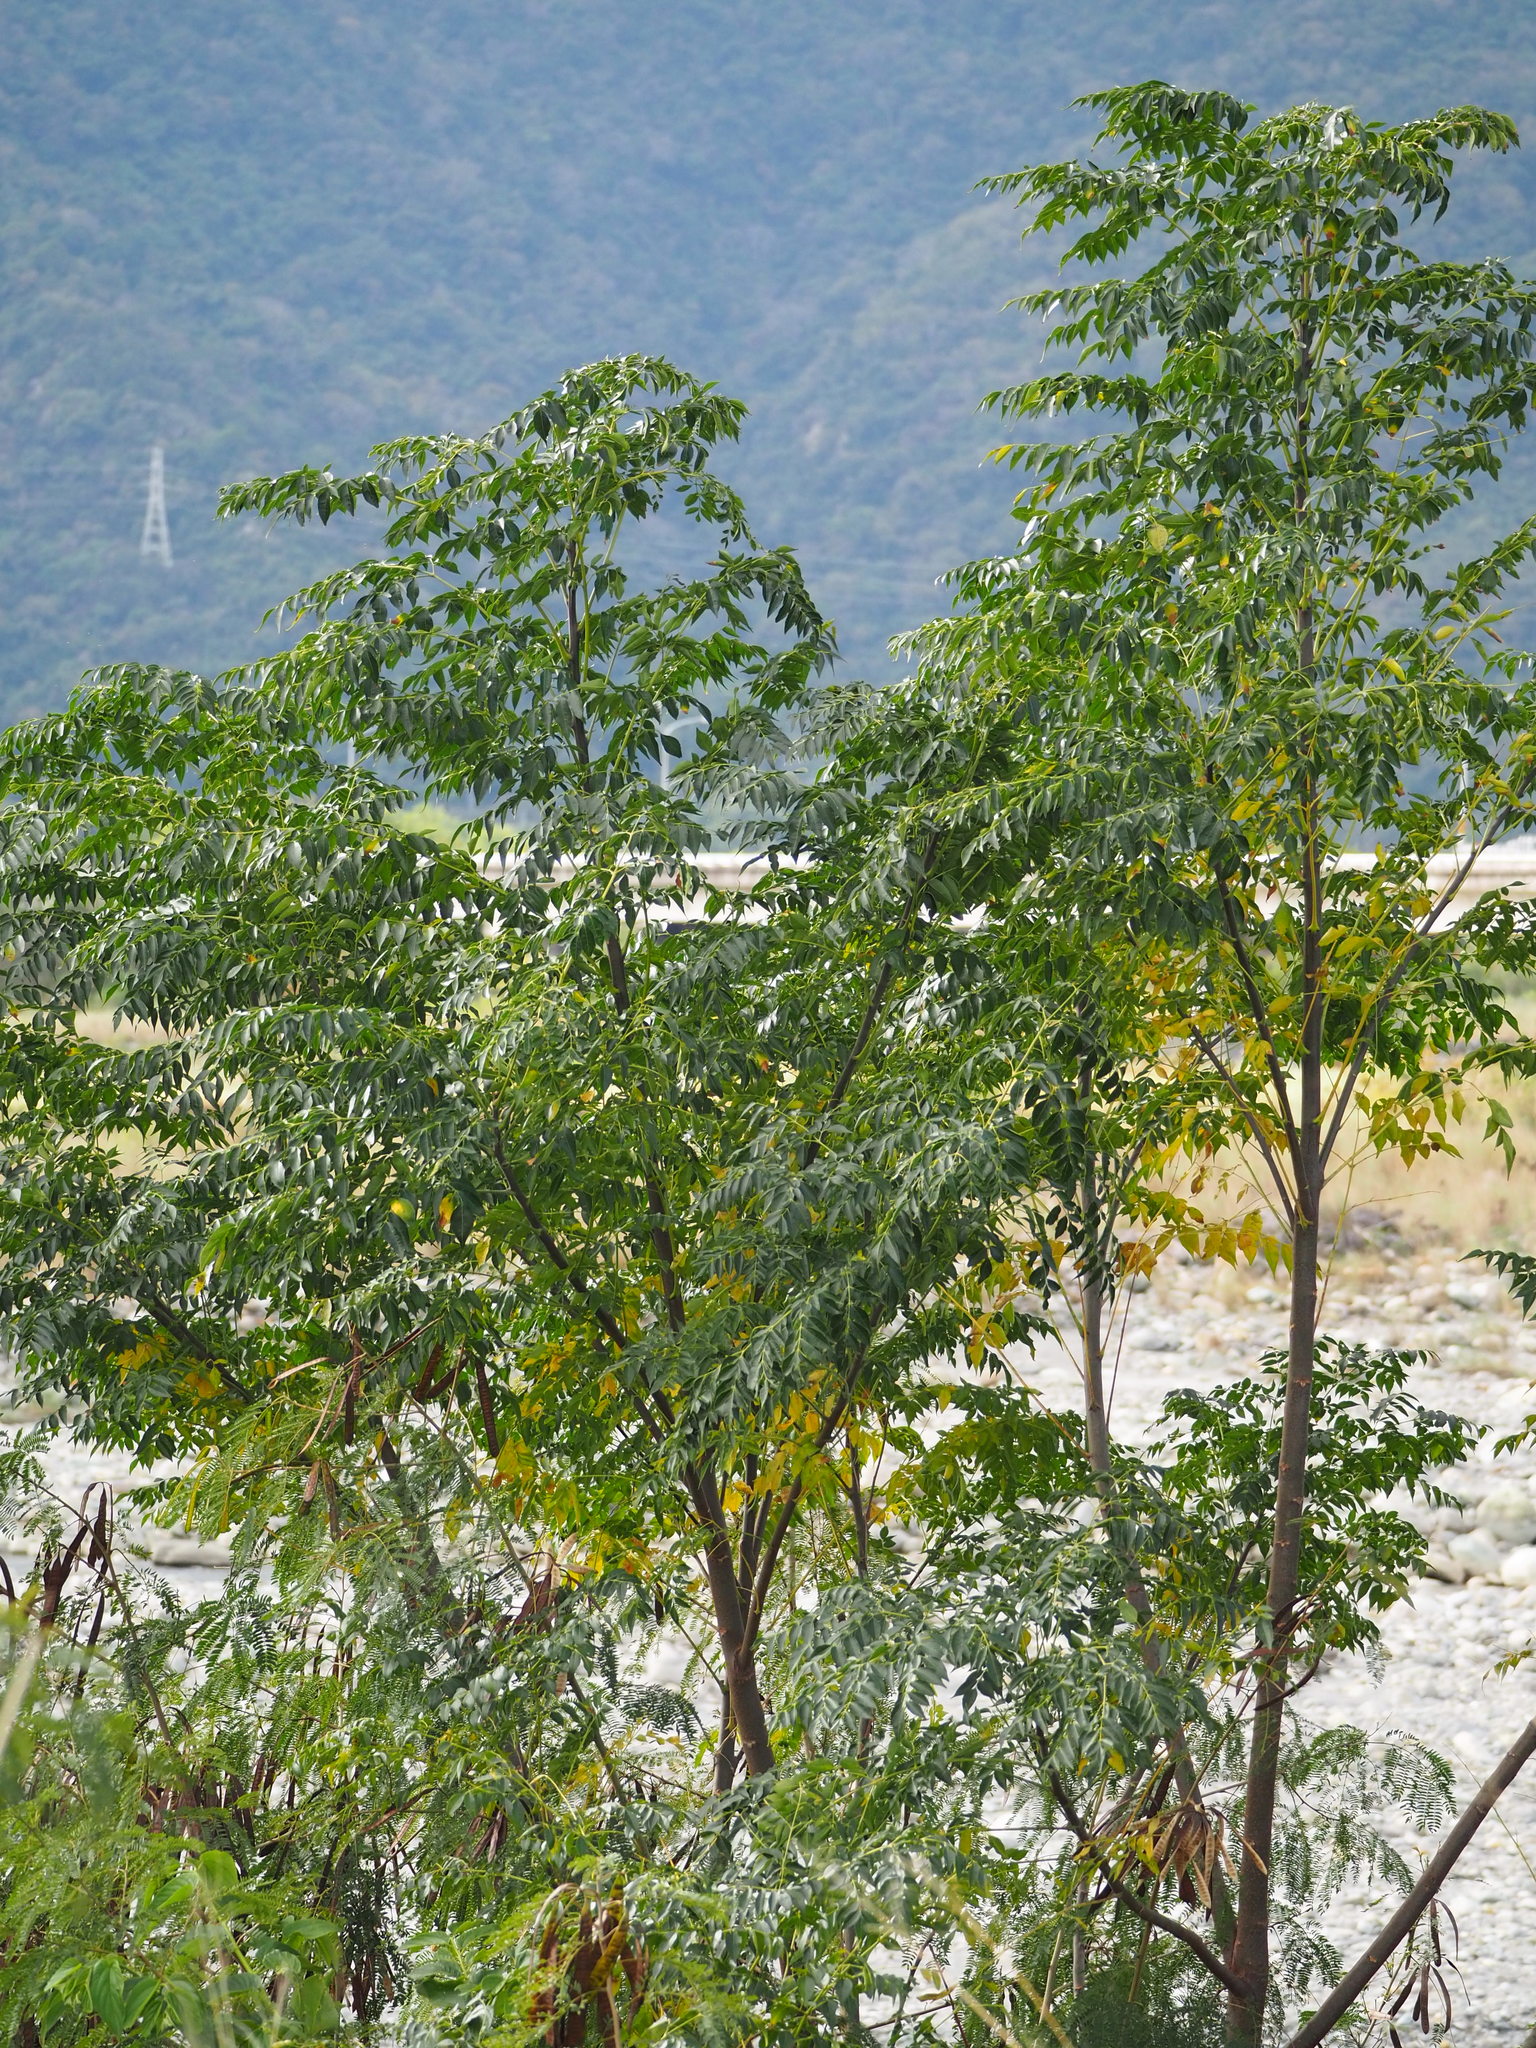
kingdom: Plantae
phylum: Tracheophyta
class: Magnoliopsida
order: Sapindales
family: Meliaceae
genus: Melia
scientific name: Melia azedarach
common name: Chinaberrytree
